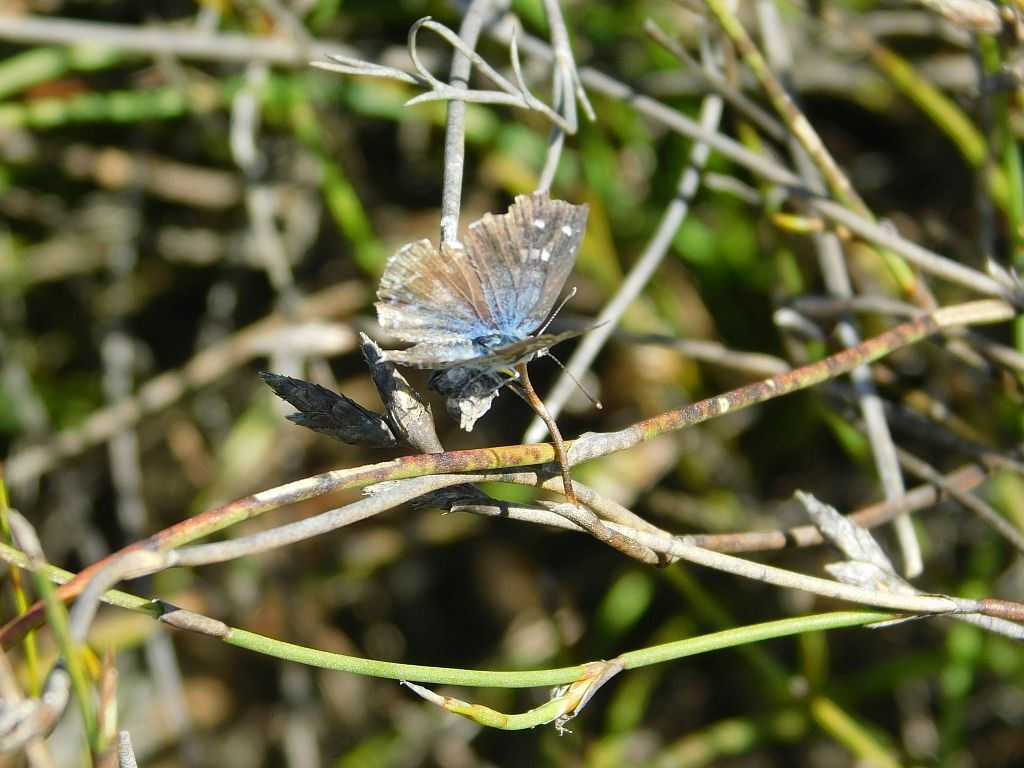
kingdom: Animalia
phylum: Arthropoda
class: Insecta
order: Lepidoptera
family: Lycaenidae
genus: Tarucus
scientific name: Tarucus thespis
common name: Vivid dotted blue
